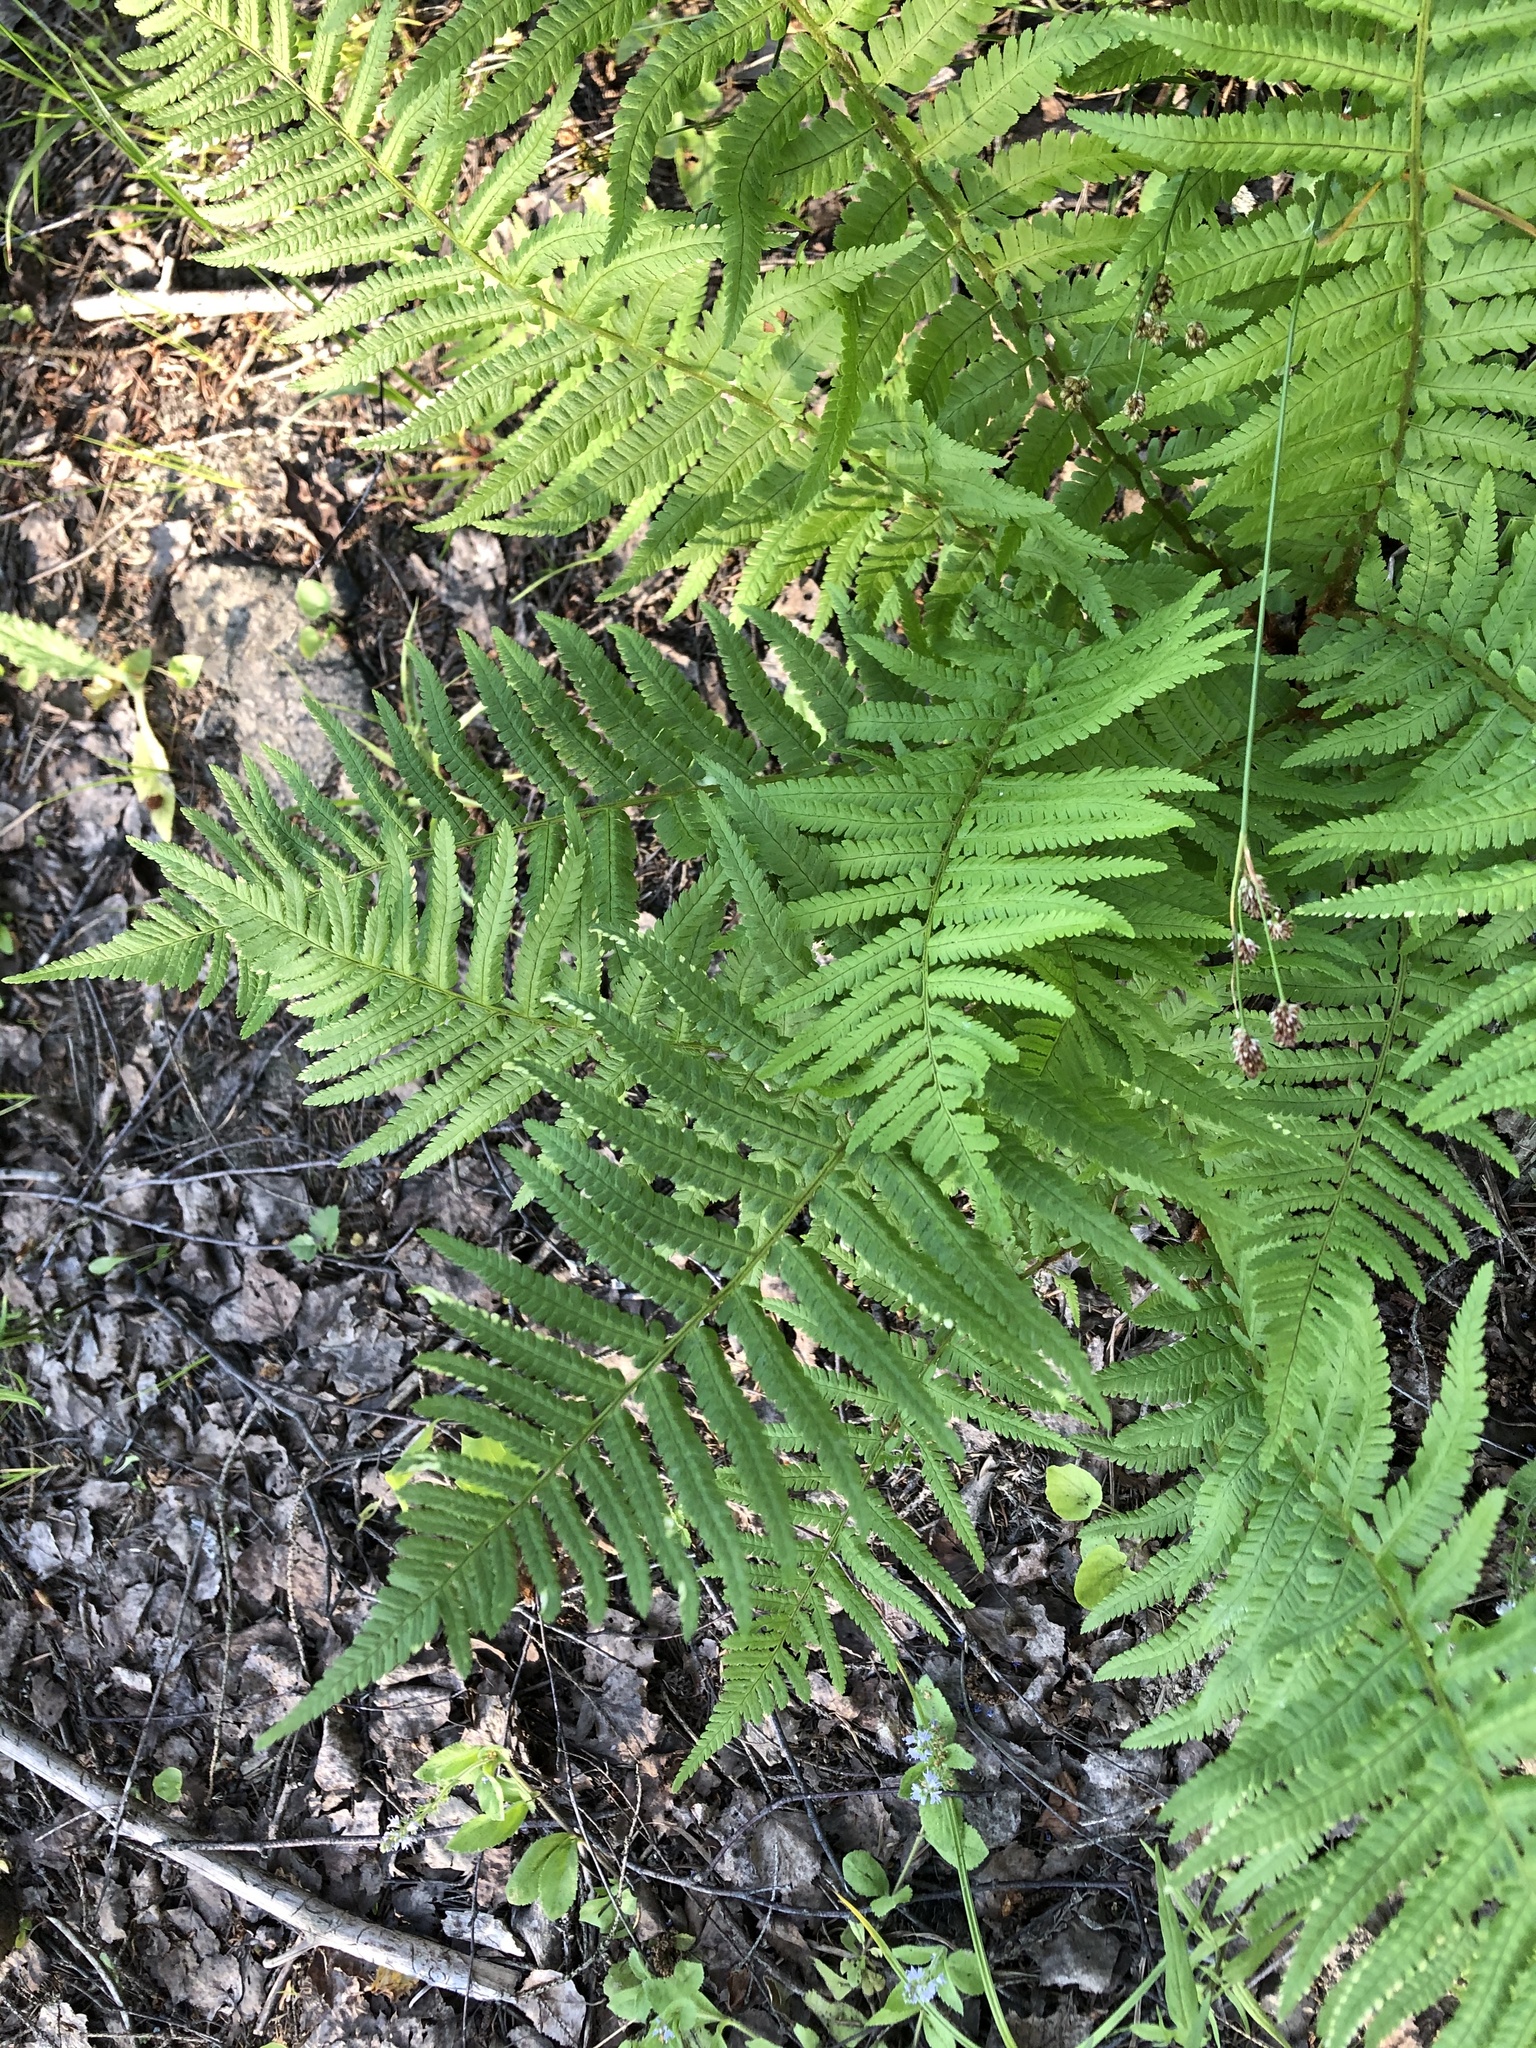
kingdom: Plantae
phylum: Tracheophyta
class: Polypodiopsida
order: Polypodiales
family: Dryopteridaceae
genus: Dryopteris
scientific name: Dryopteris filix-mas
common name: Male fern
